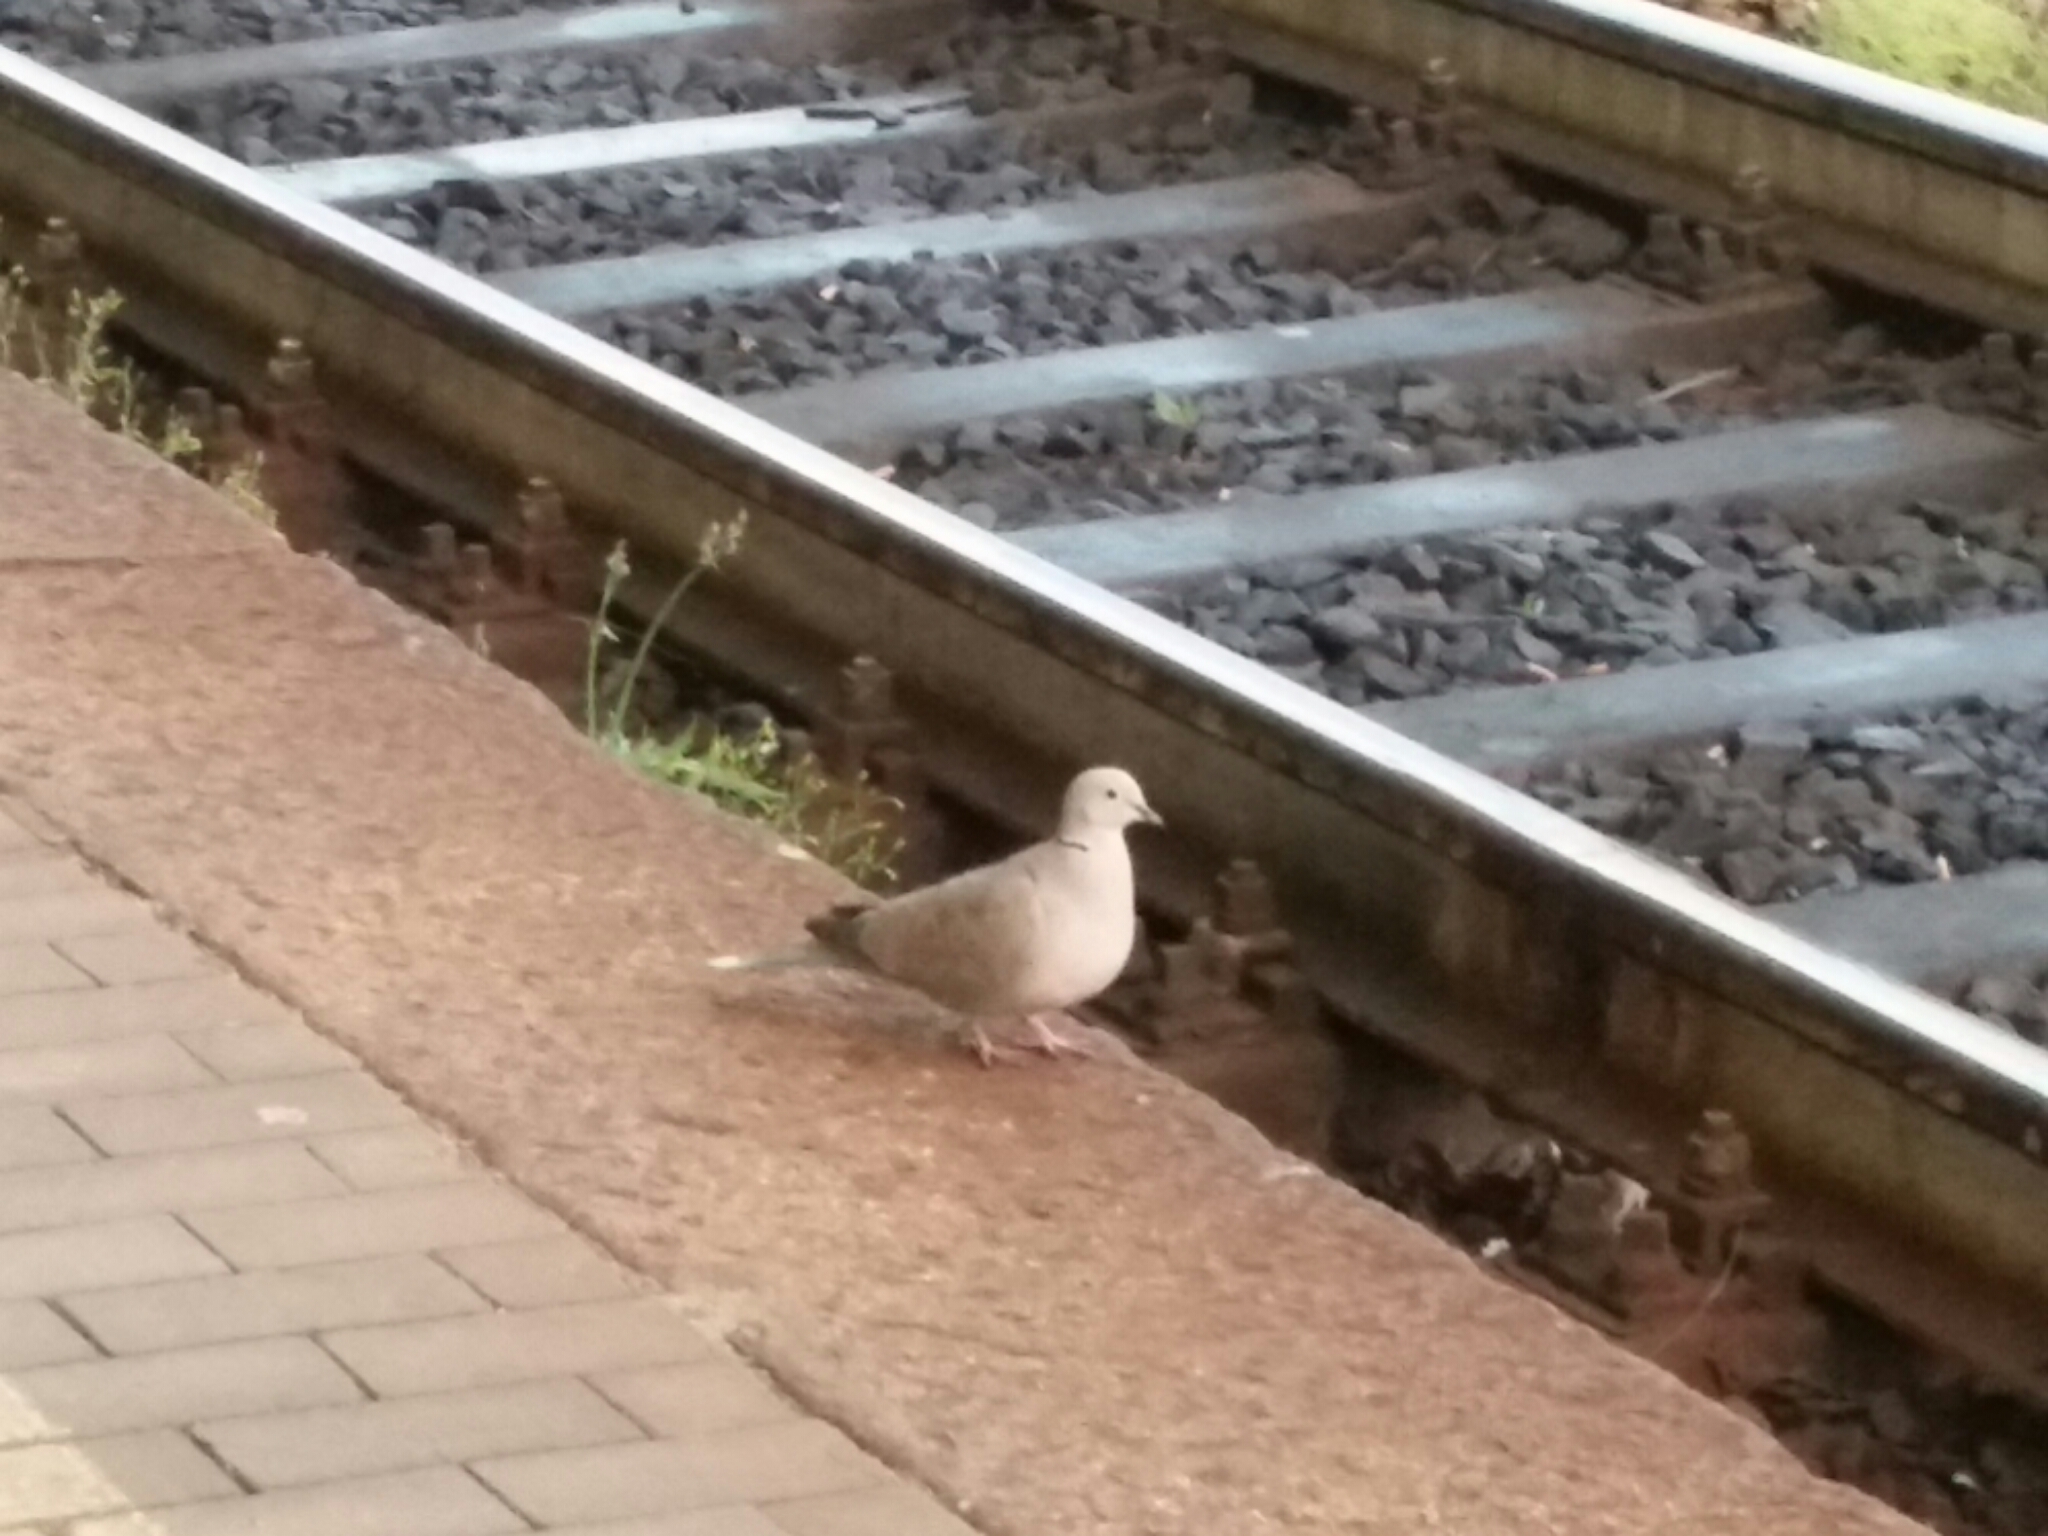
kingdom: Animalia
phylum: Chordata
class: Aves
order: Columbiformes
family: Columbidae
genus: Streptopelia
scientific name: Streptopelia decaocto
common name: Eurasian collared dove
